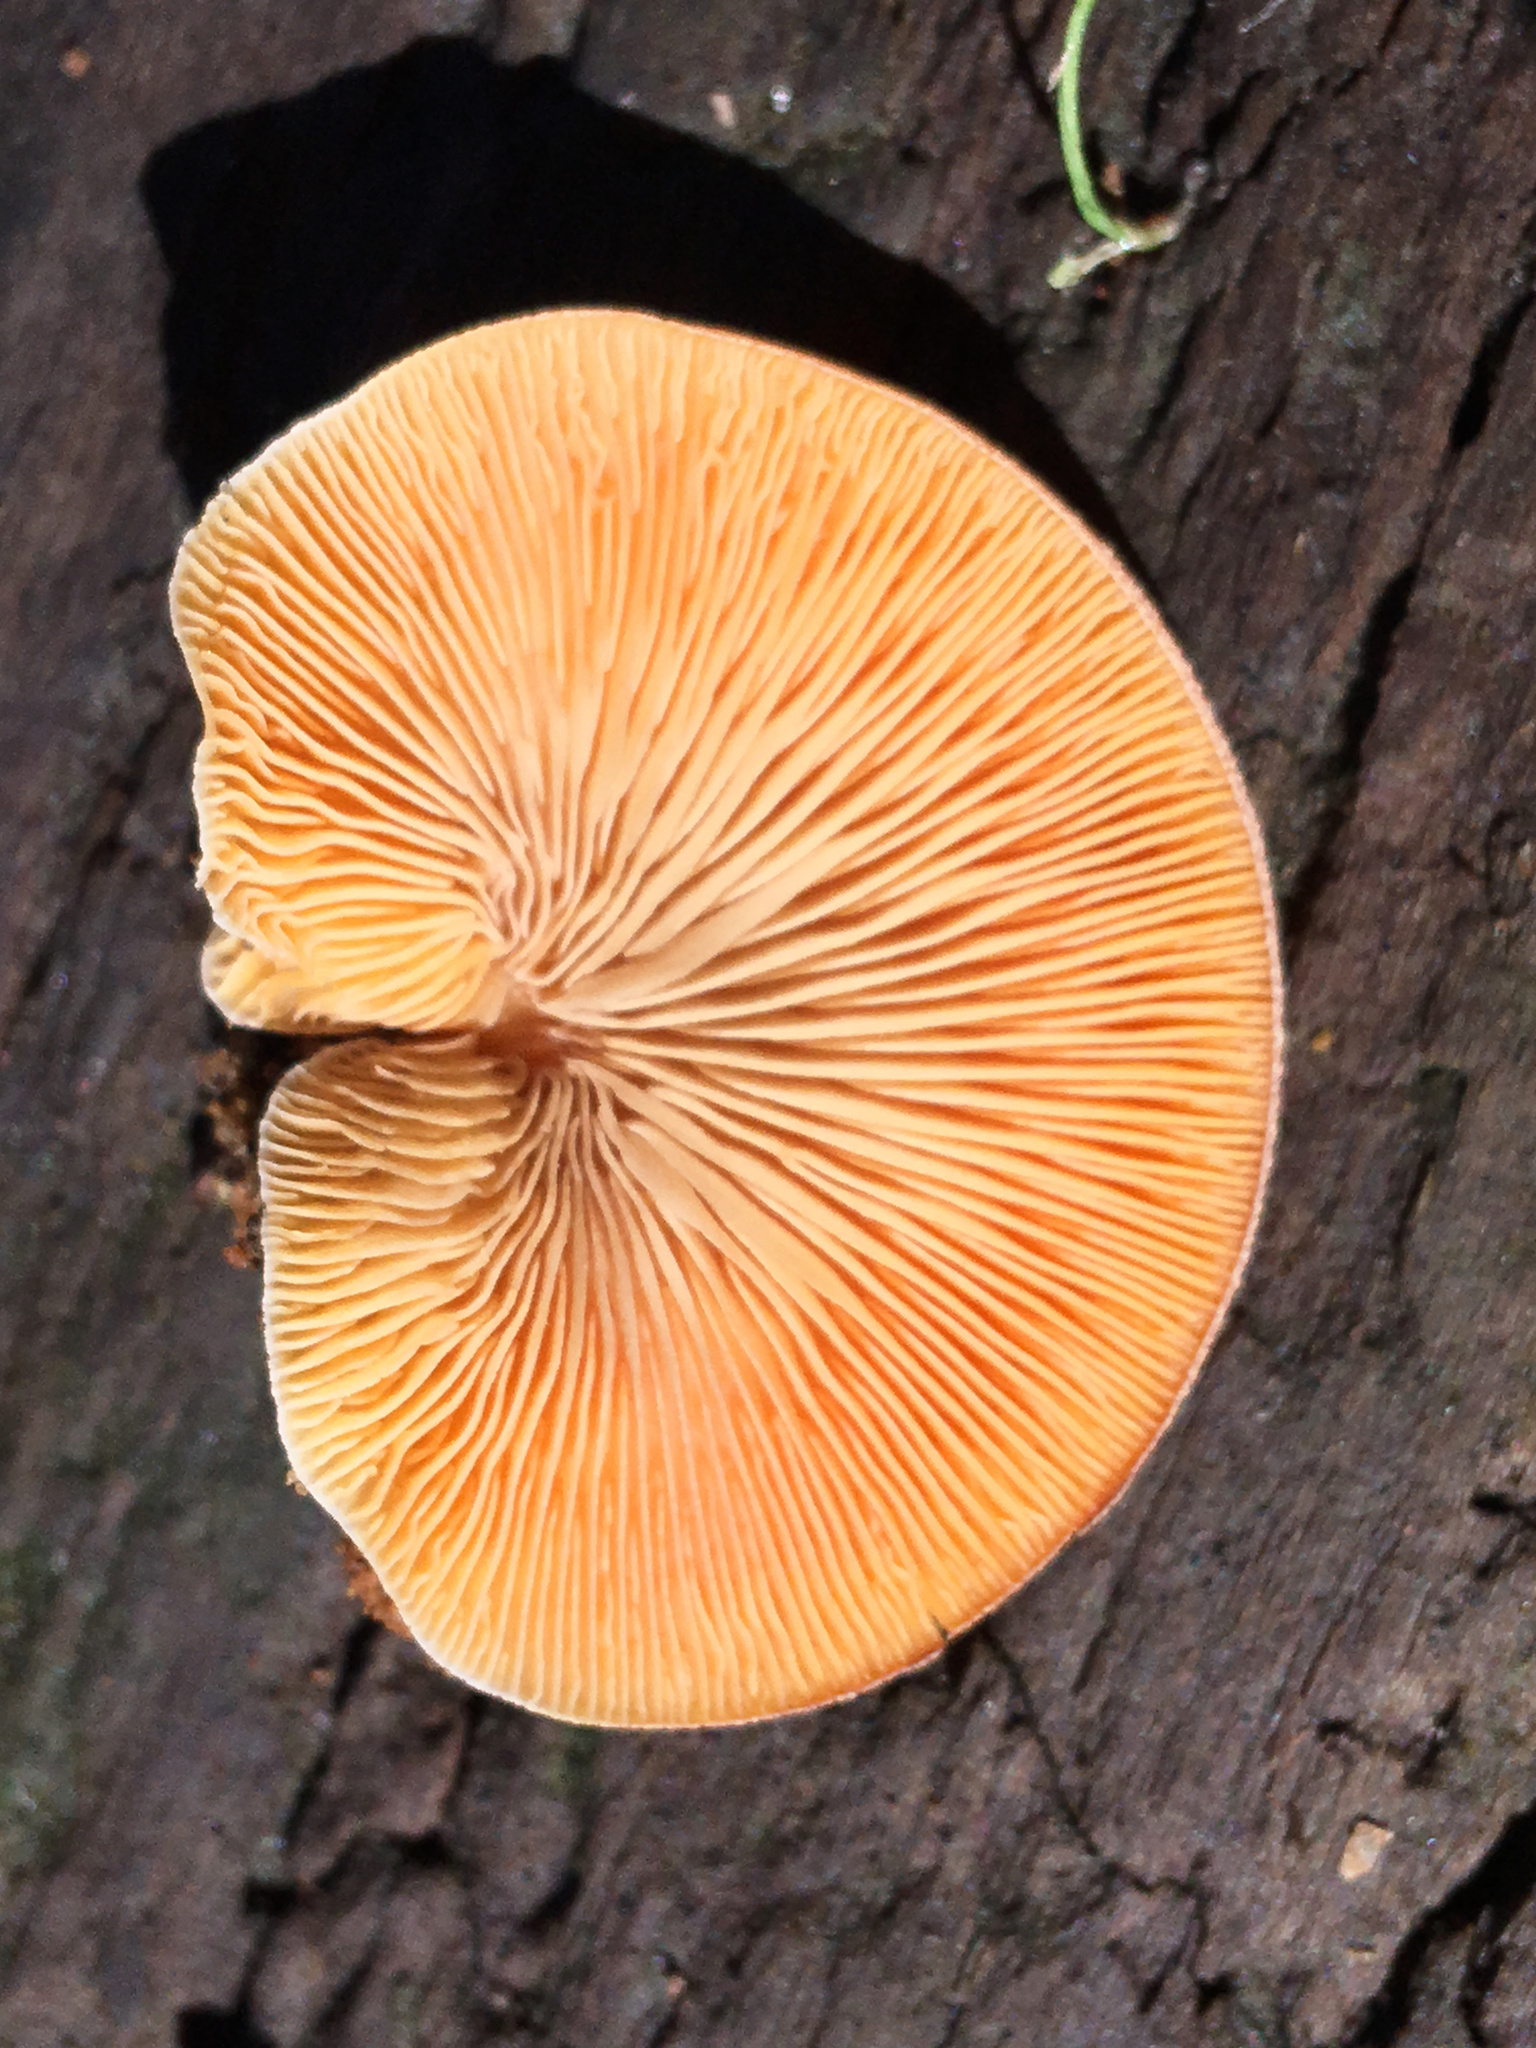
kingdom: Fungi
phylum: Basidiomycota
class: Agaricomycetes
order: Agaricales
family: Crepidotaceae
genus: Crepidotus
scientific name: Crepidotus crocophyllus
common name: Saffron oysterling
